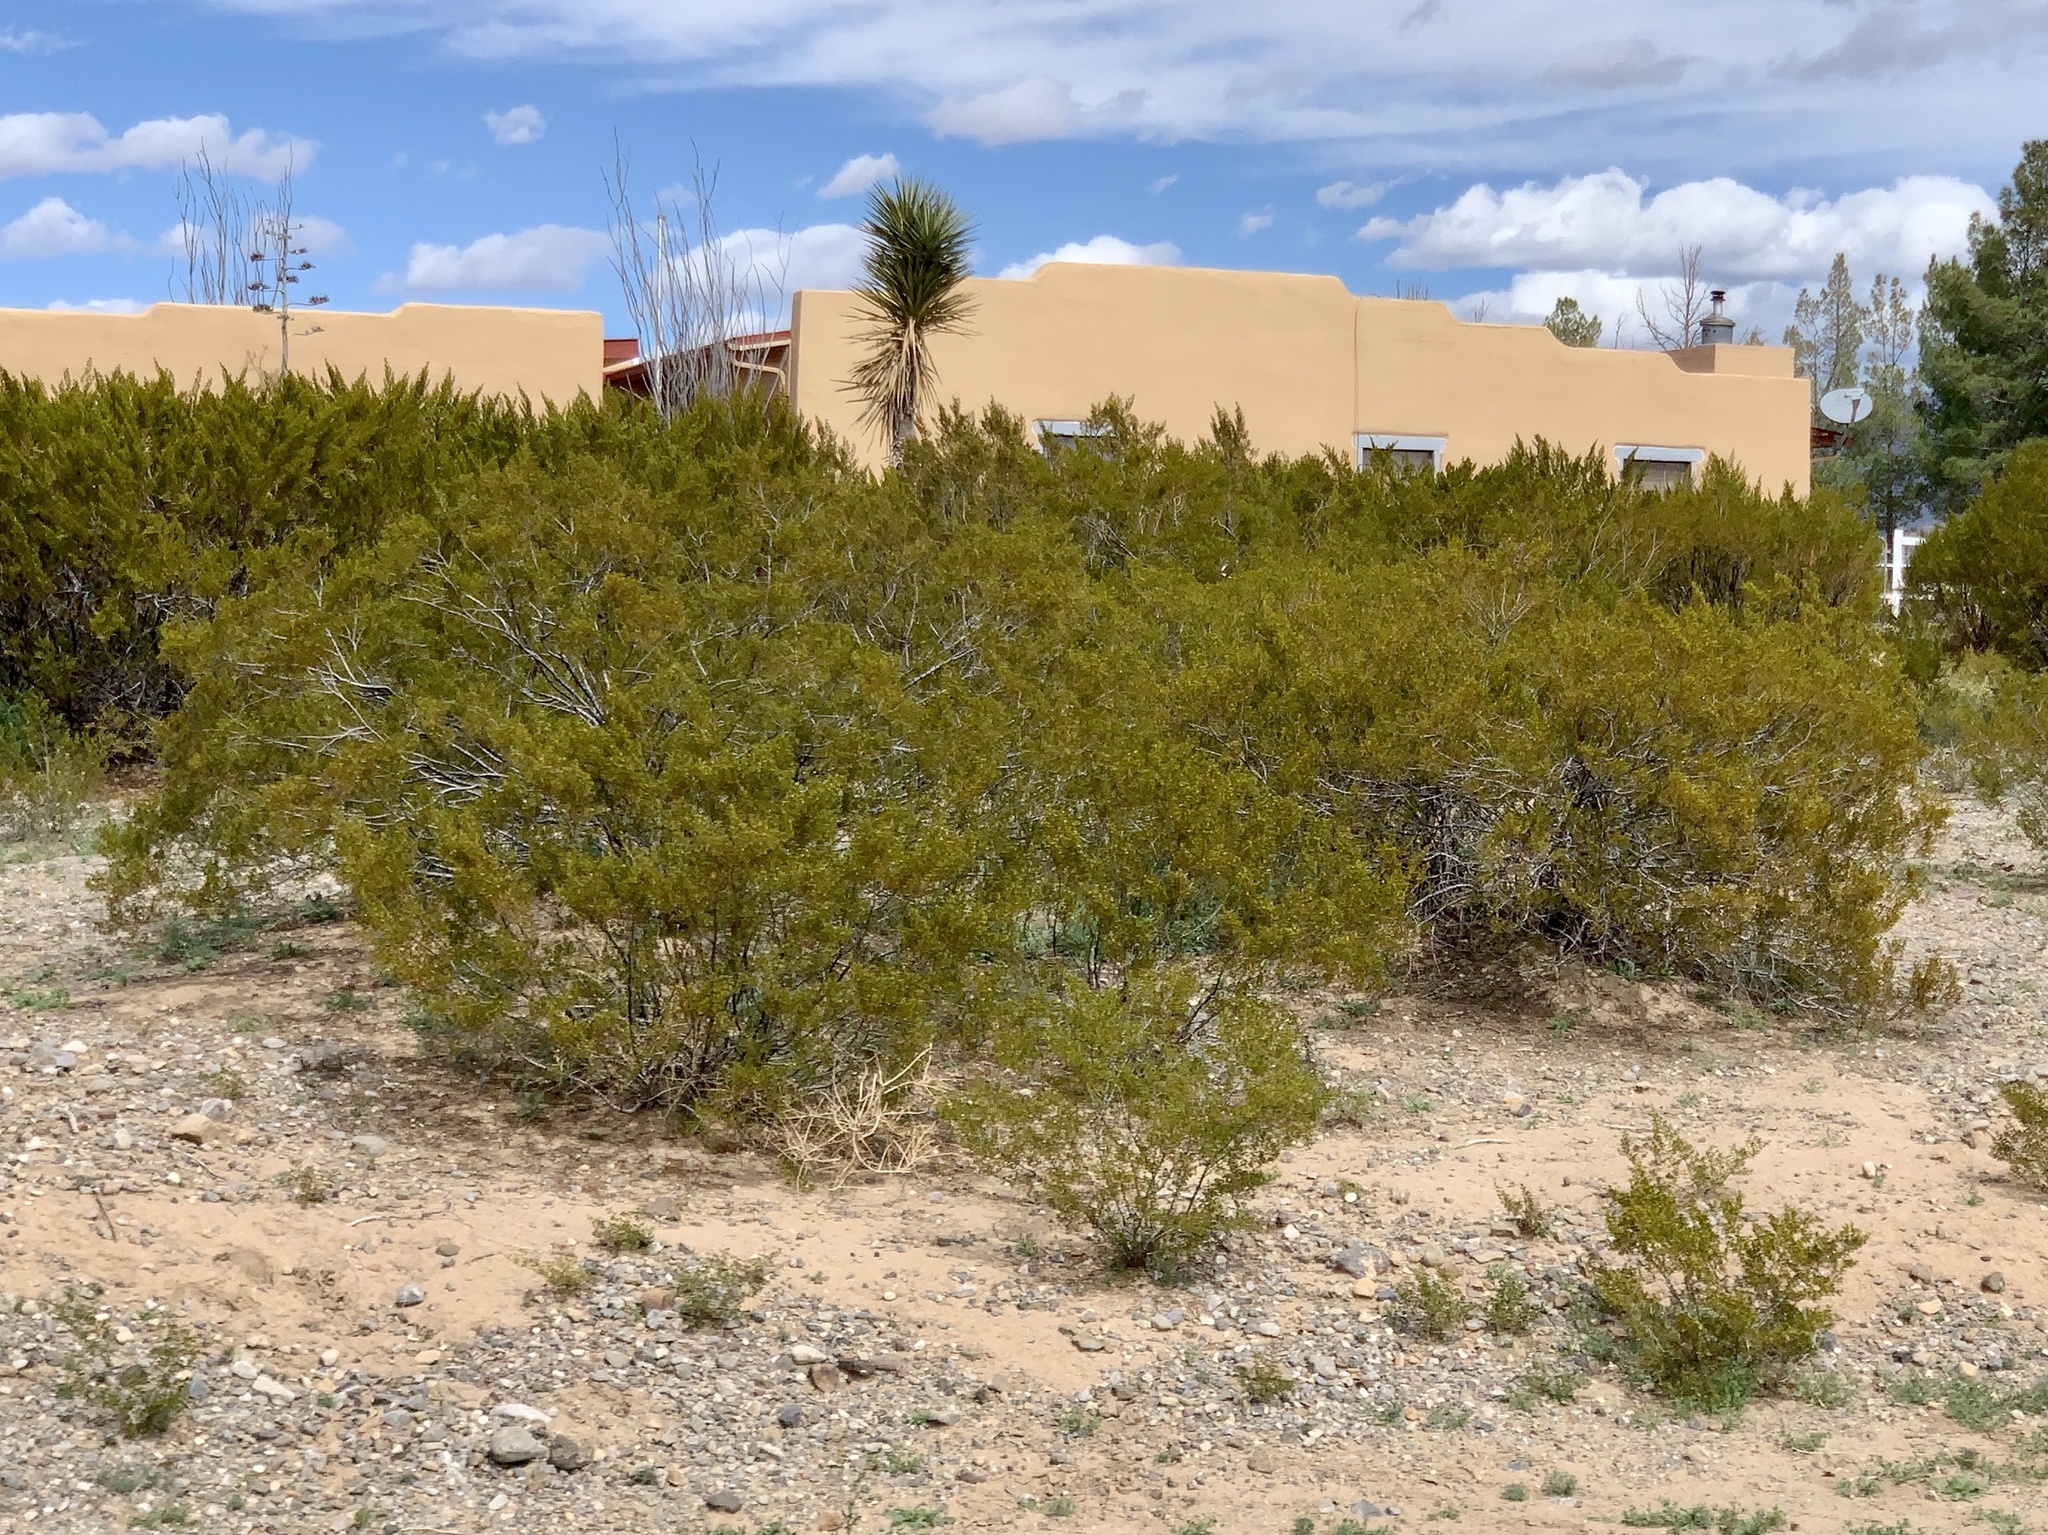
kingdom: Plantae
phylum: Tracheophyta
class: Magnoliopsida
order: Zygophyllales
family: Zygophyllaceae
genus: Larrea
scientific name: Larrea tridentata
